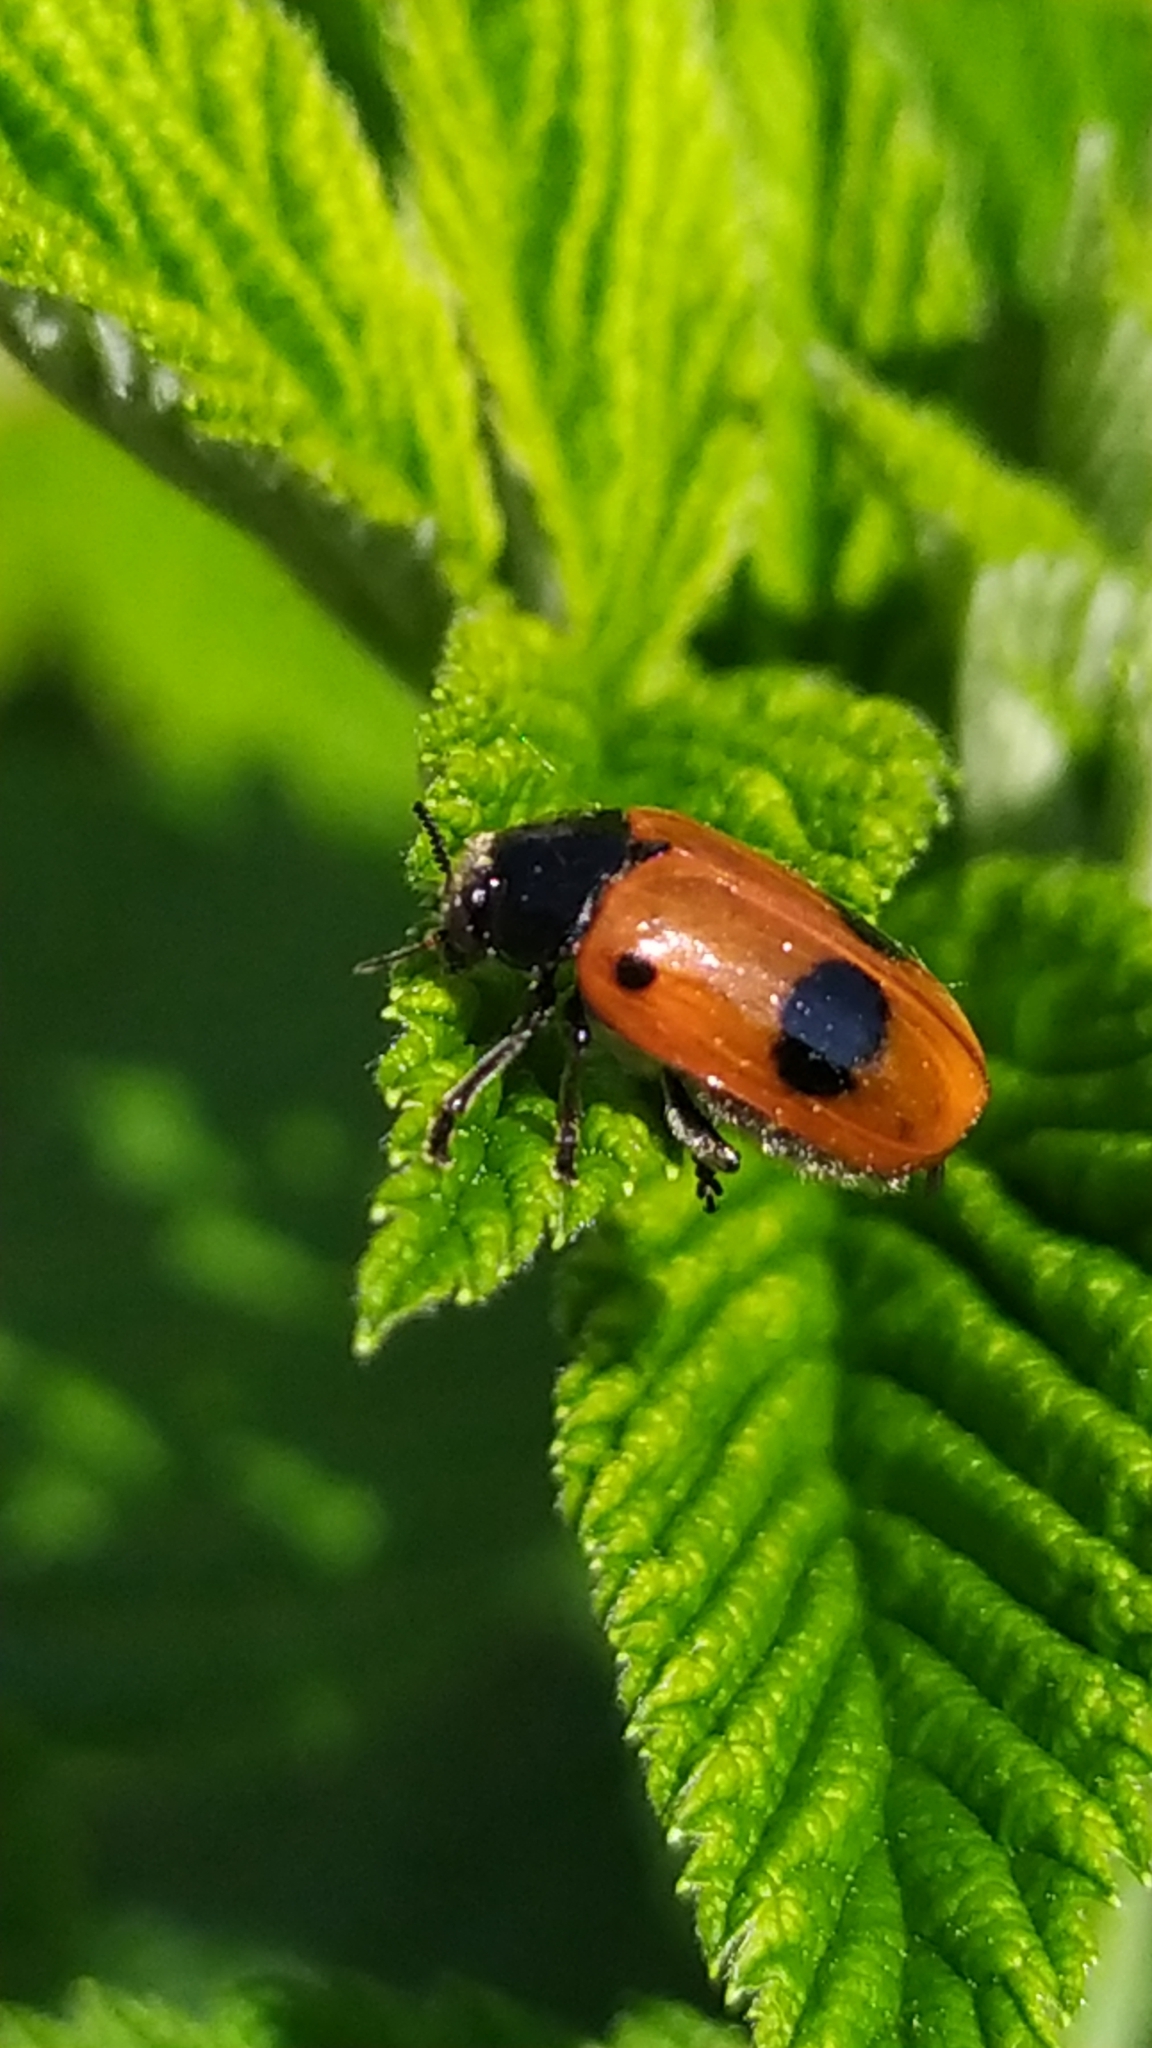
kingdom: Animalia
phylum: Arthropoda
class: Insecta
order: Coleoptera
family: Chrysomelidae
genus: Clytra
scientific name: Clytra laeviuscula
